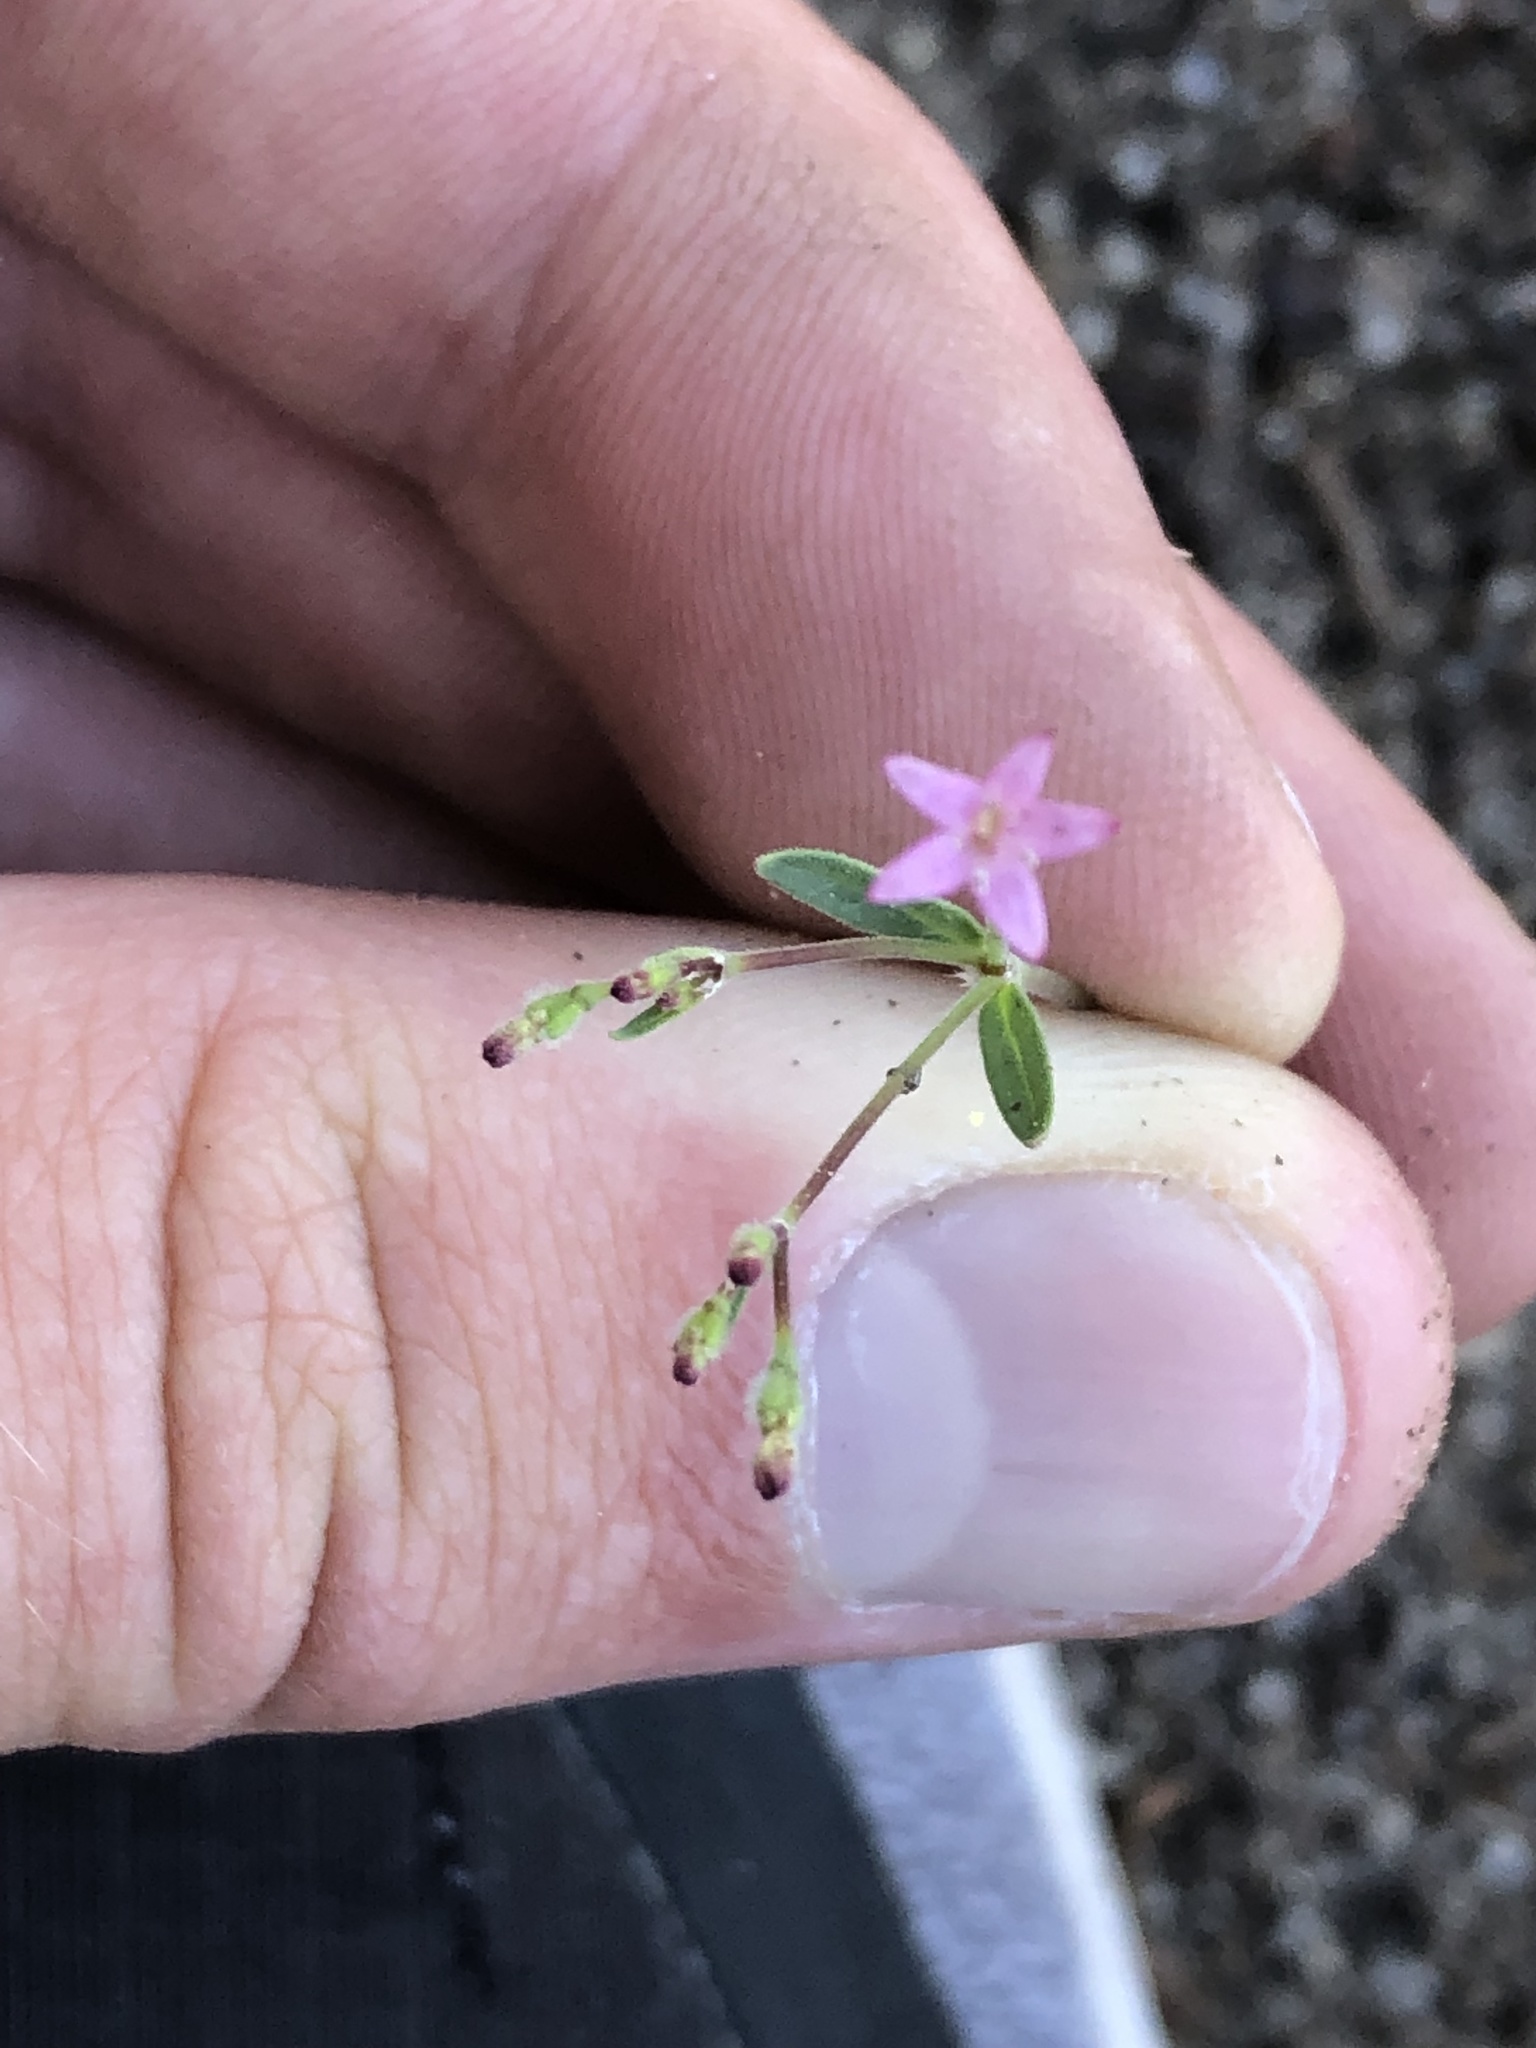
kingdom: Plantae
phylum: Tracheophyta
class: Magnoliopsida
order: Gentianales
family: Rubiaceae
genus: Kelloggia
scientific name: Kelloggia galioides
